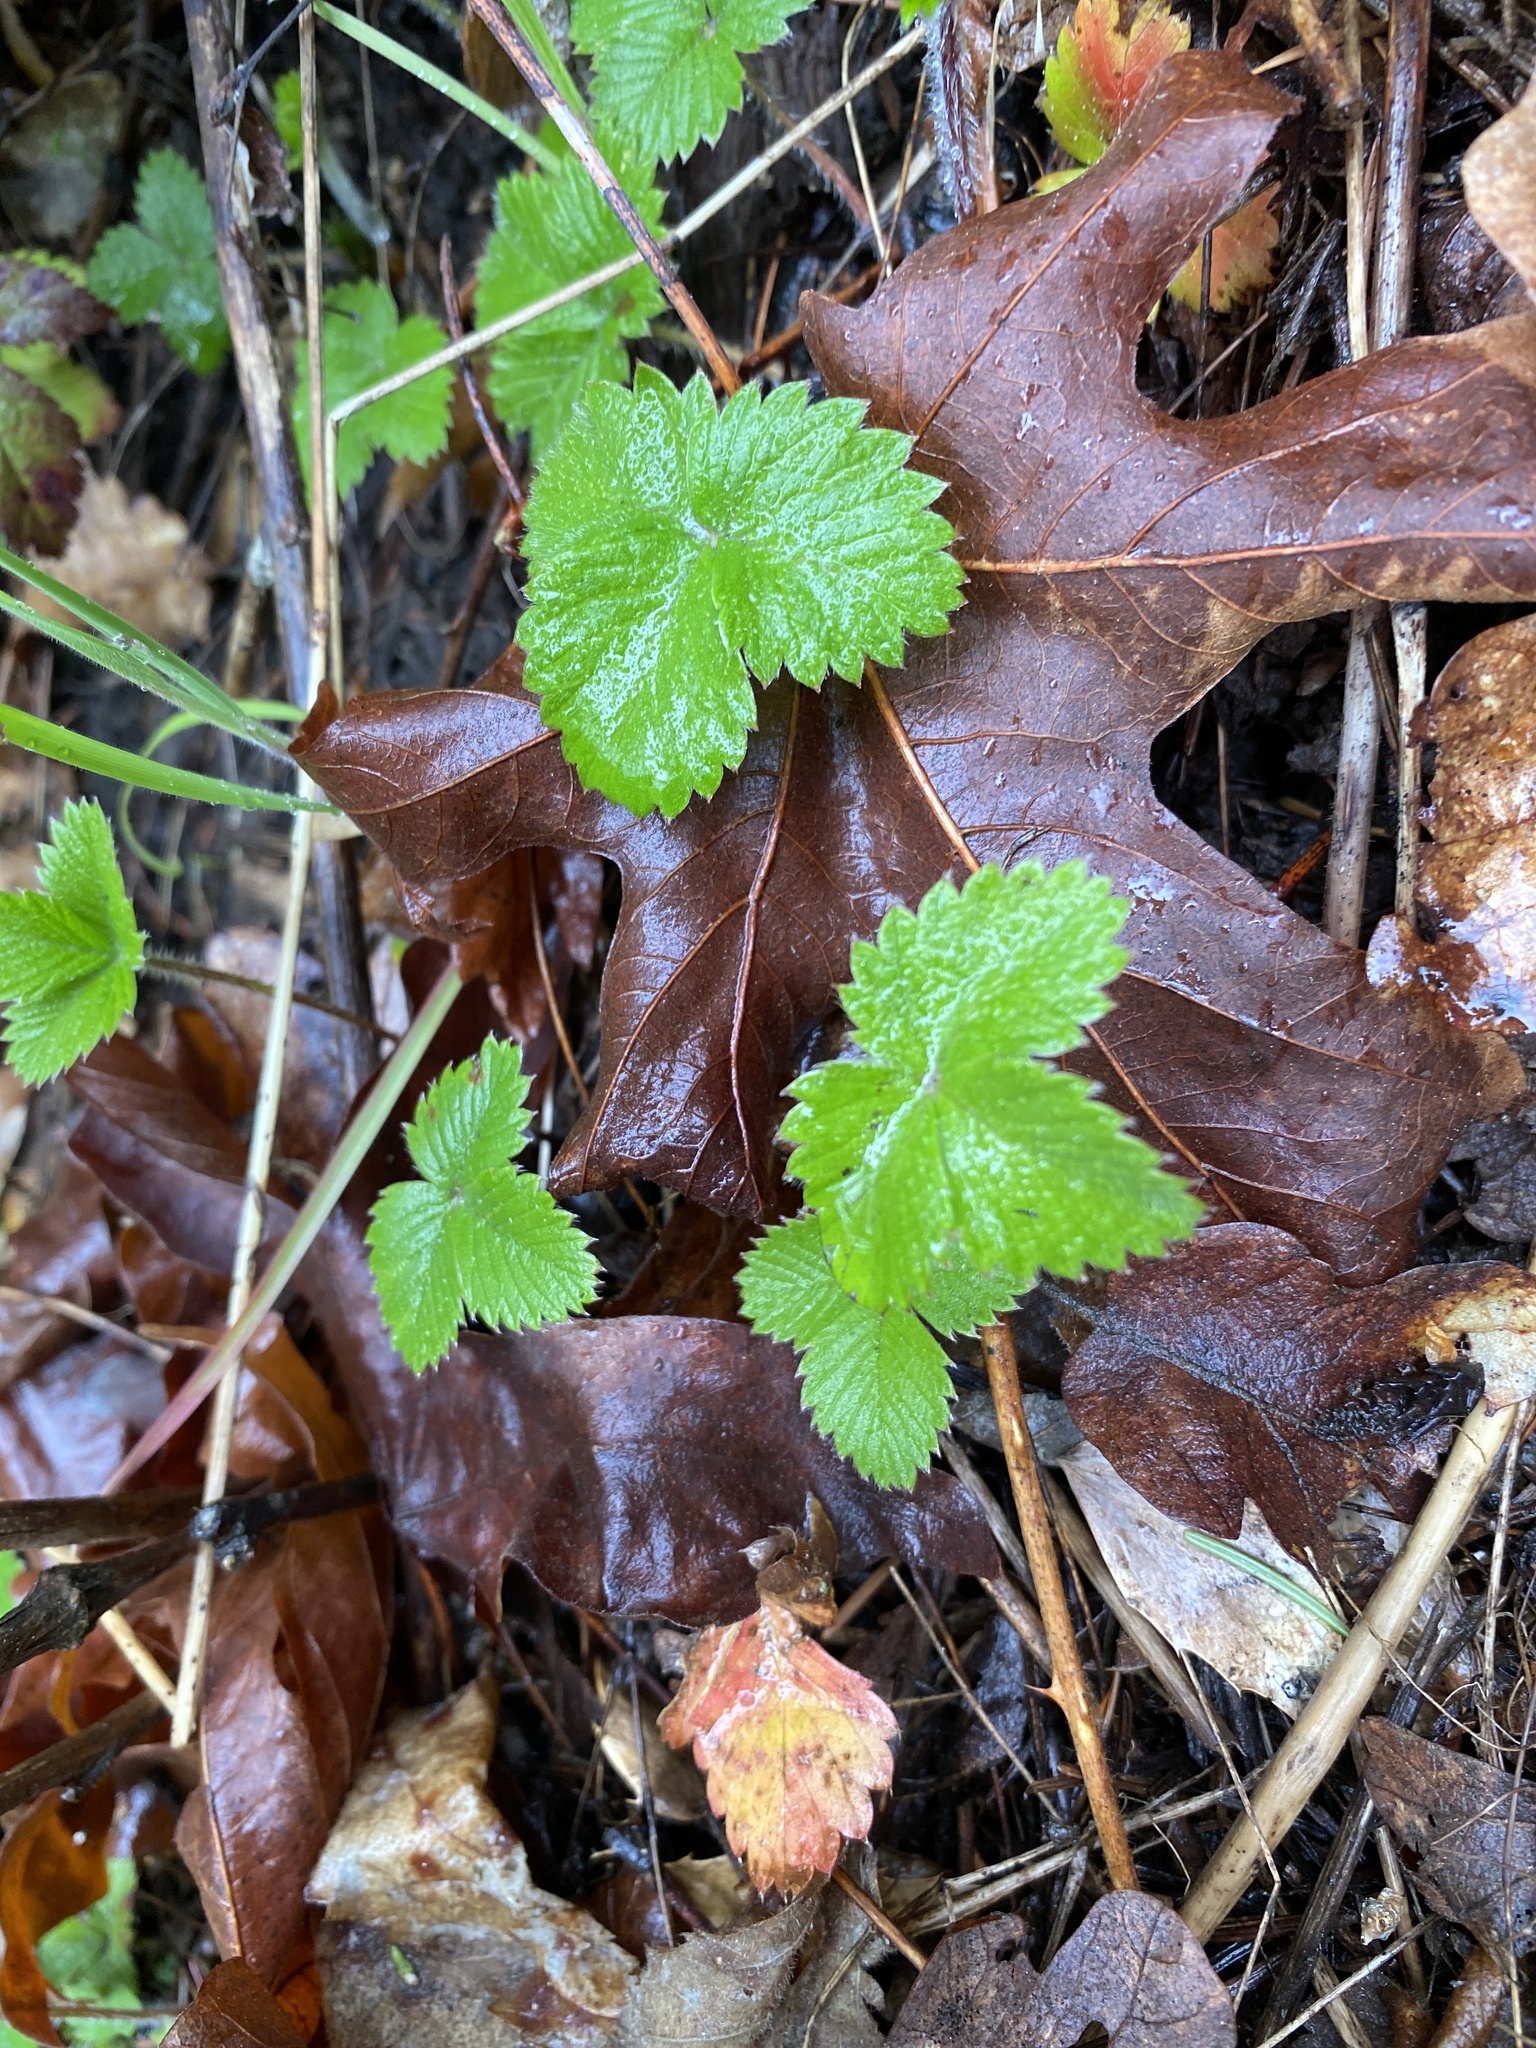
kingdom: Plantae
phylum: Tracheophyta
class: Magnoliopsida
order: Rosales
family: Rosaceae
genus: Fragaria
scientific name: Fragaria vesca
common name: Wild strawberry
